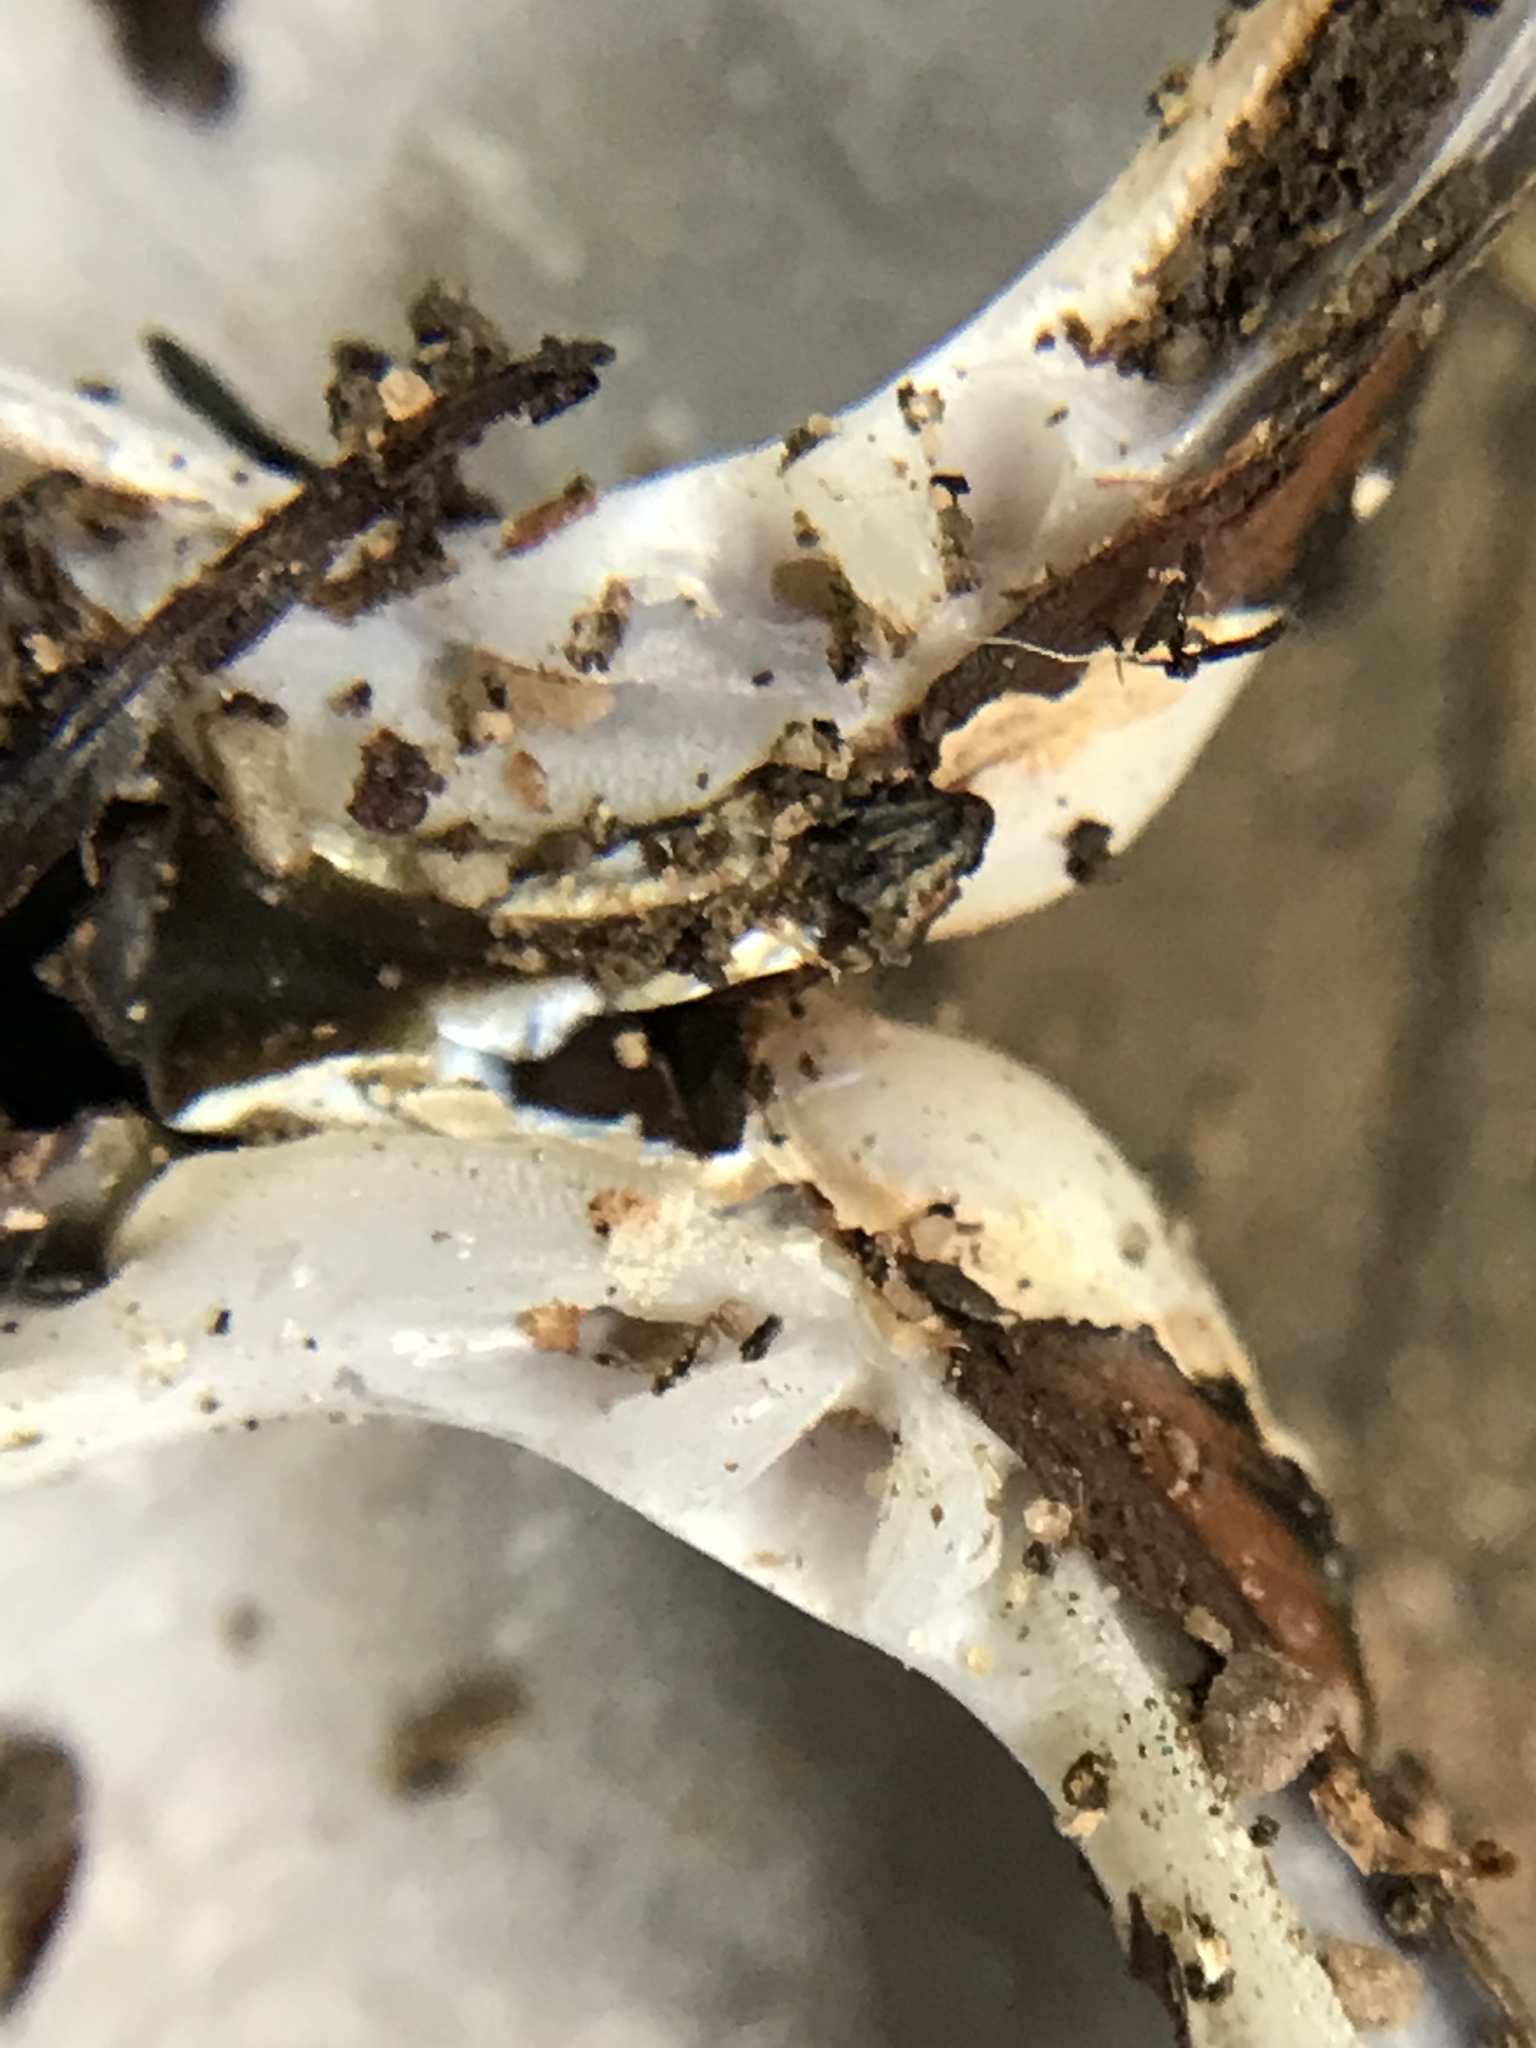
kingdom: Animalia
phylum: Mollusca
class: Bivalvia
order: Venerida
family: Cyrenidae
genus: Corbicula
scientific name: Corbicula fluminea
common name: Asian clam
